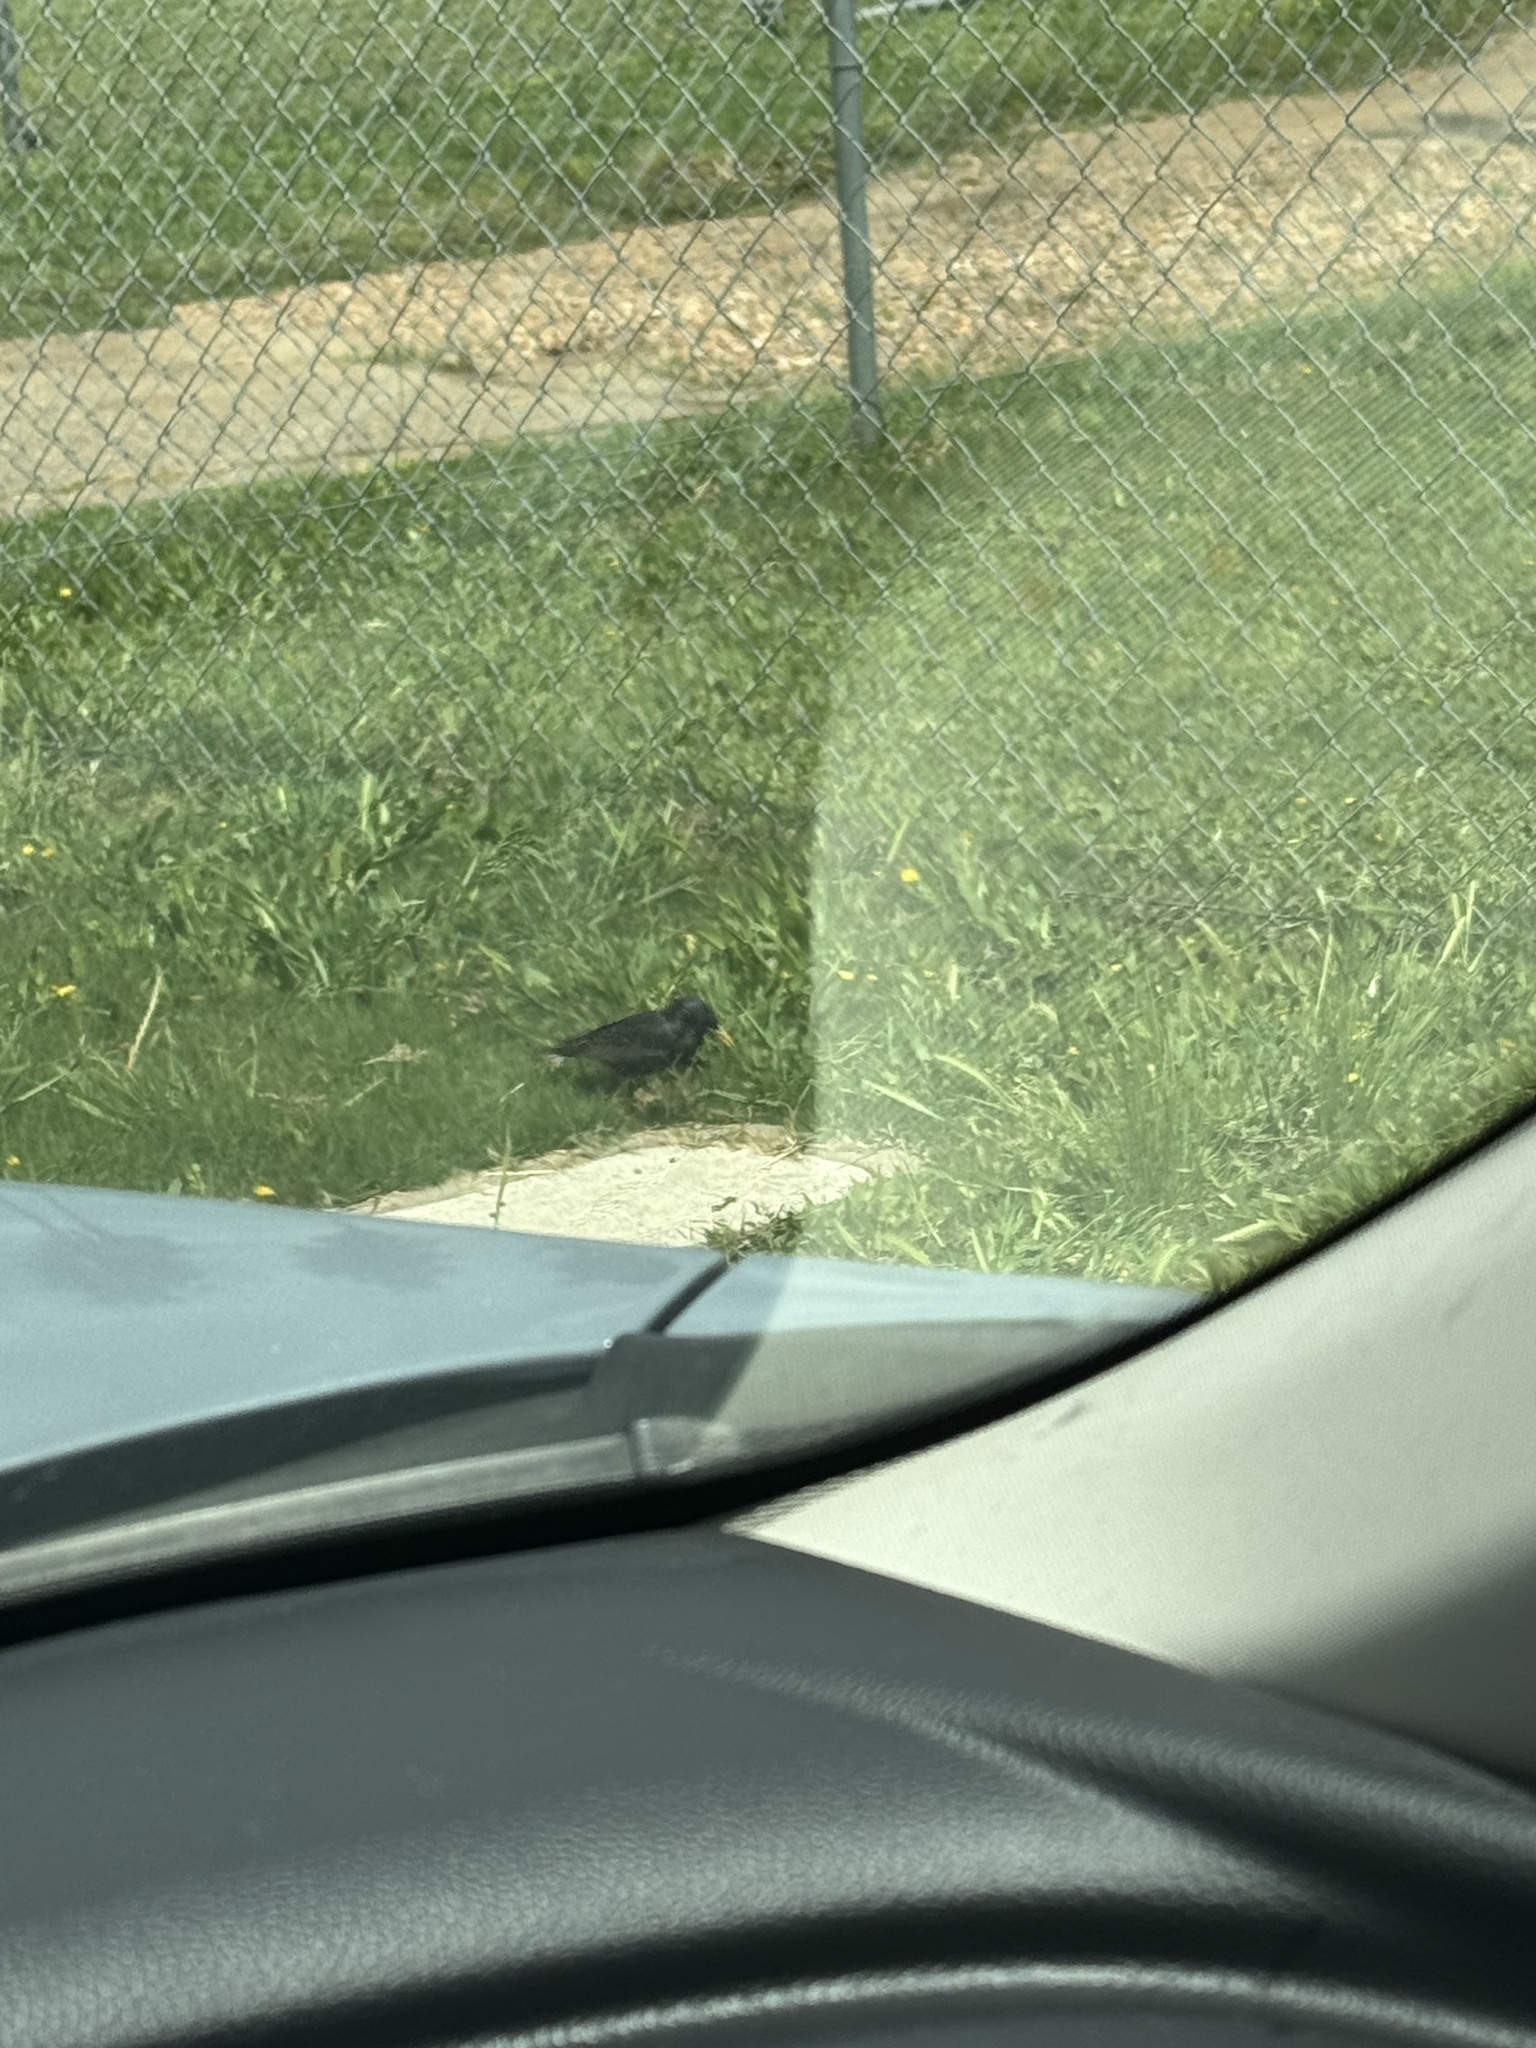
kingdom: Animalia
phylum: Chordata
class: Aves
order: Passeriformes
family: Sturnidae
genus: Sturnus
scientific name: Sturnus vulgaris
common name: Common starling
